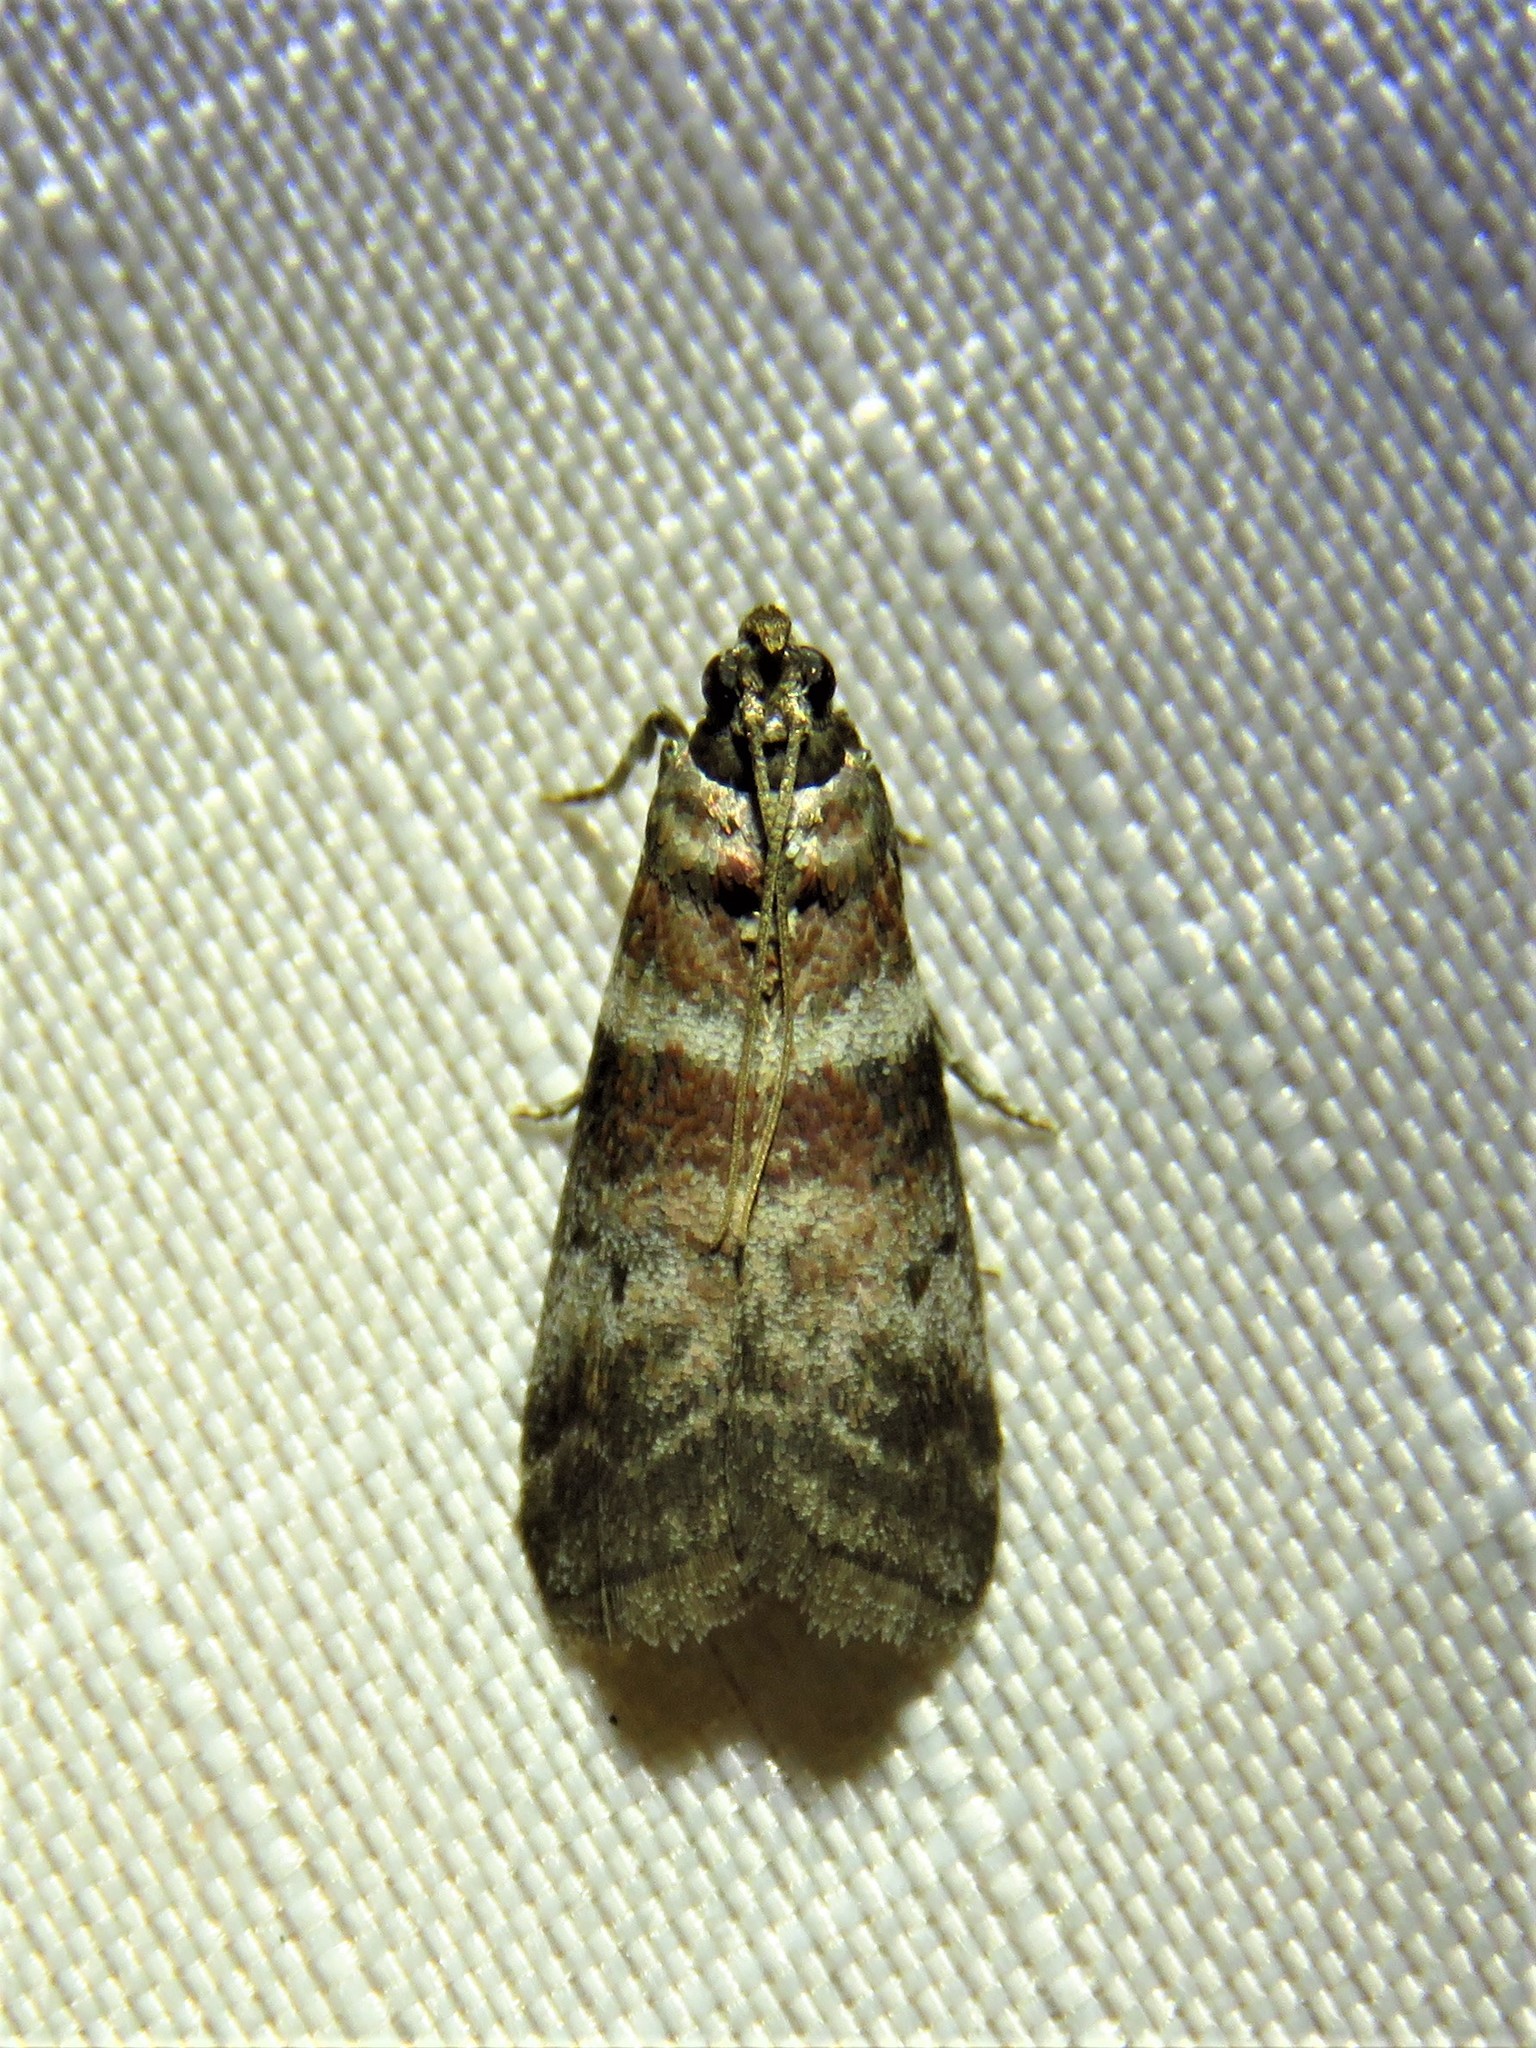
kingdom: Animalia
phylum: Arthropoda
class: Insecta
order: Lepidoptera
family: Pyralidae
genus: Sciota
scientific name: Sciota uvinella
